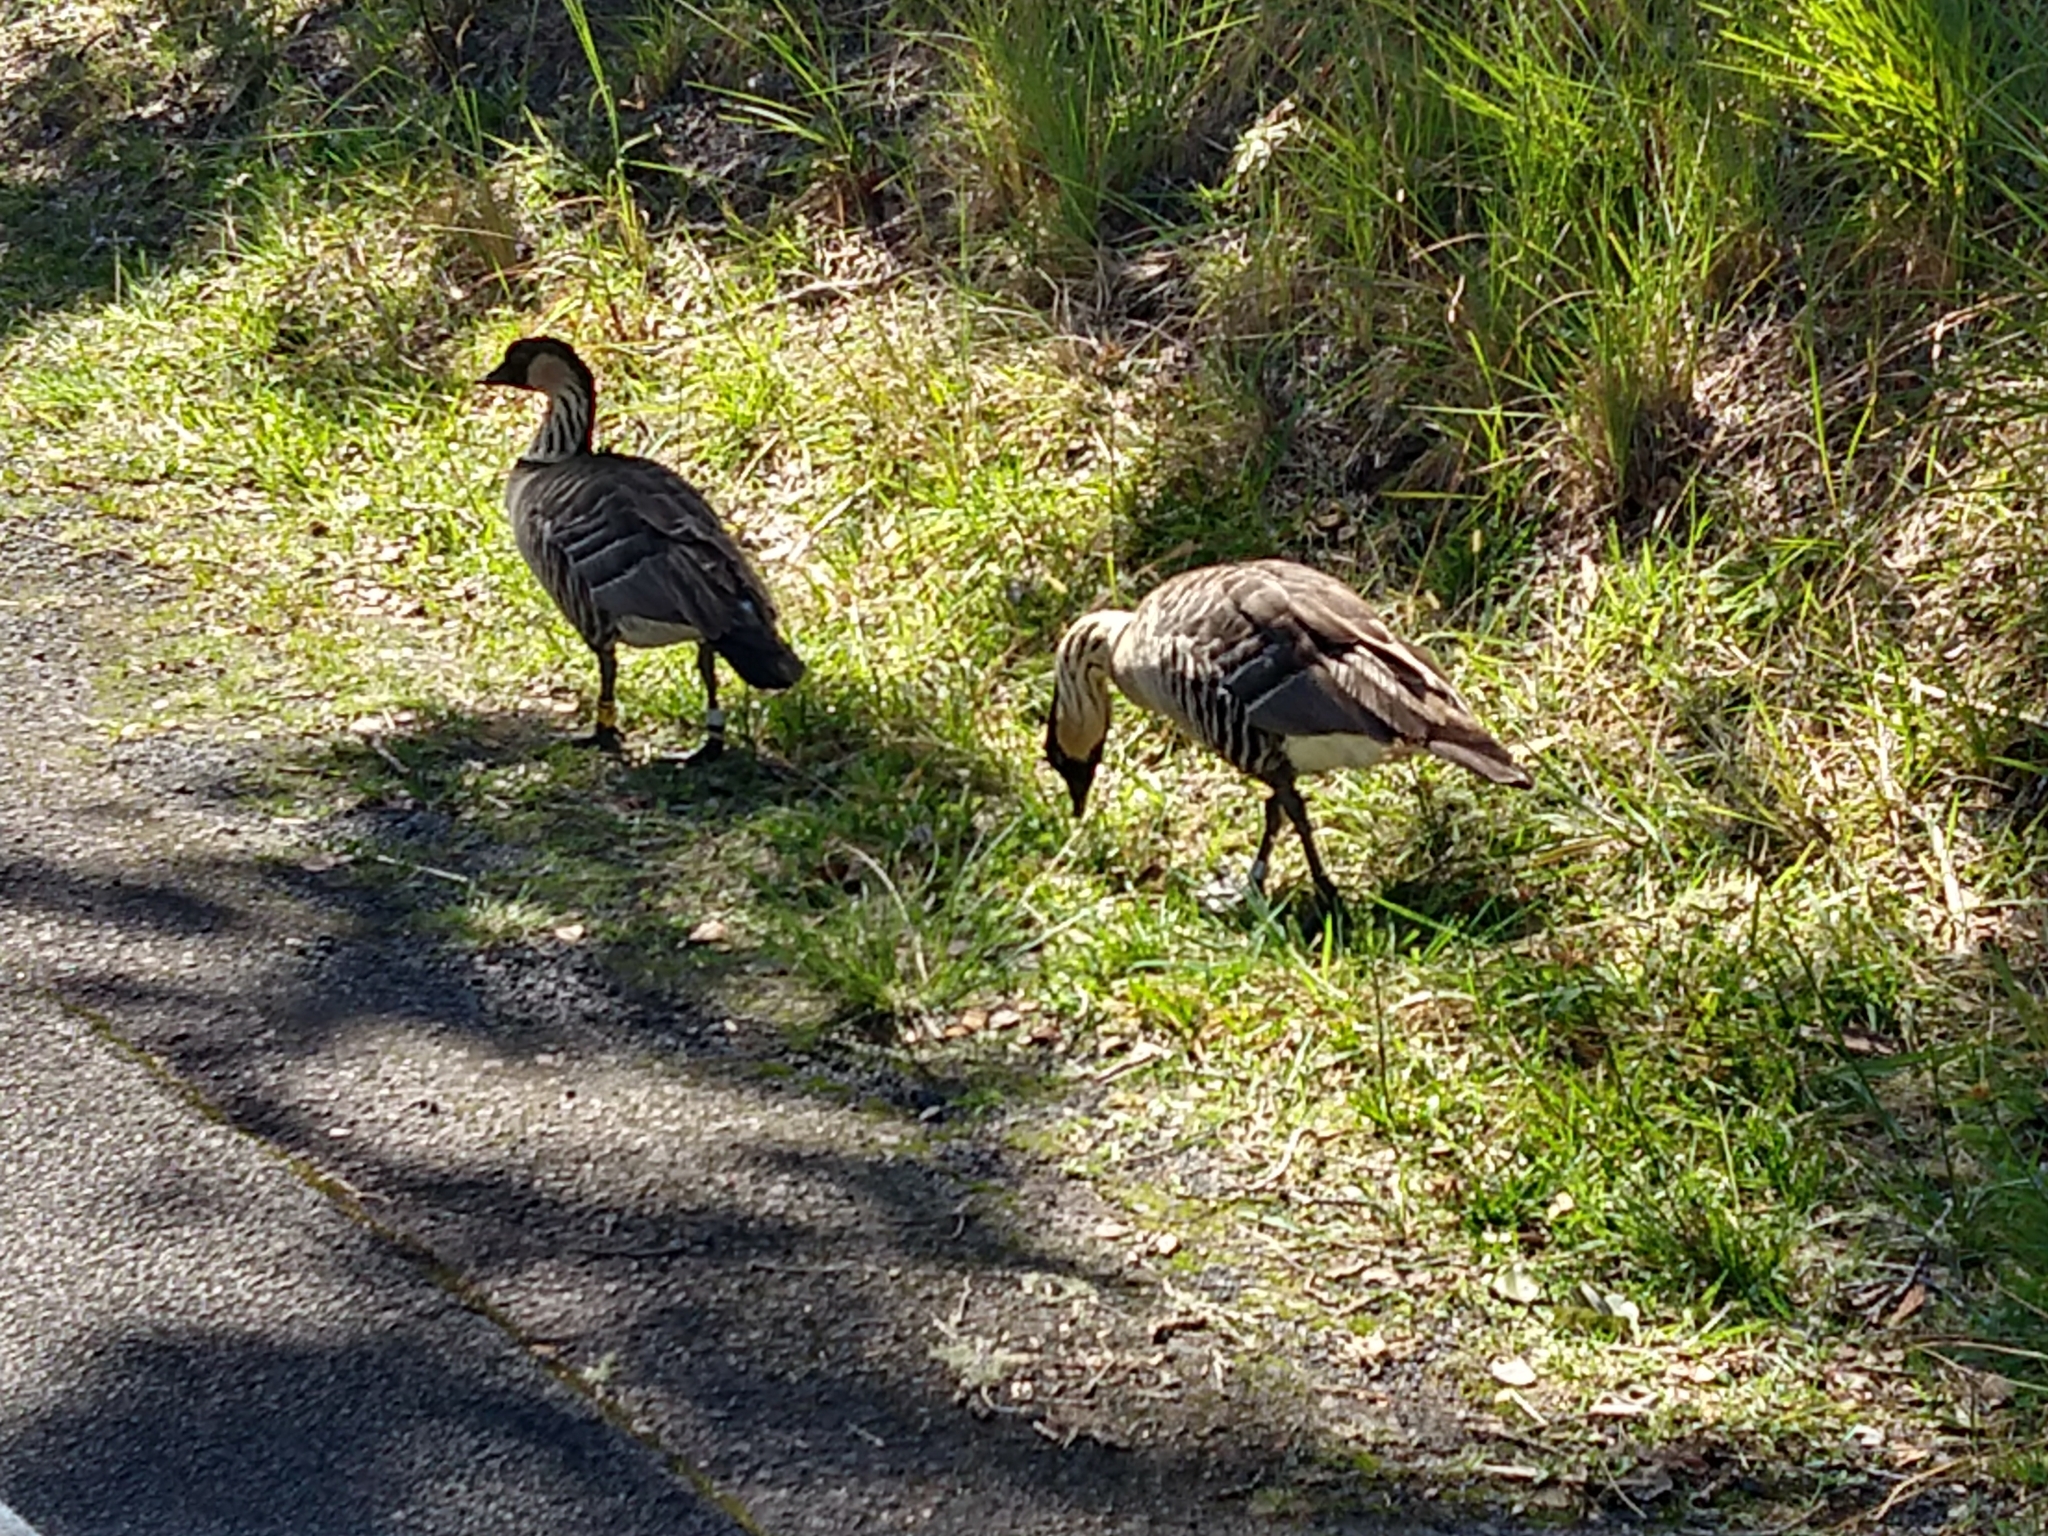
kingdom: Animalia
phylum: Chordata
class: Aves
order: Anseriformes
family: Anatidae
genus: Branta
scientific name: Branta sandvicensis
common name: Nene
